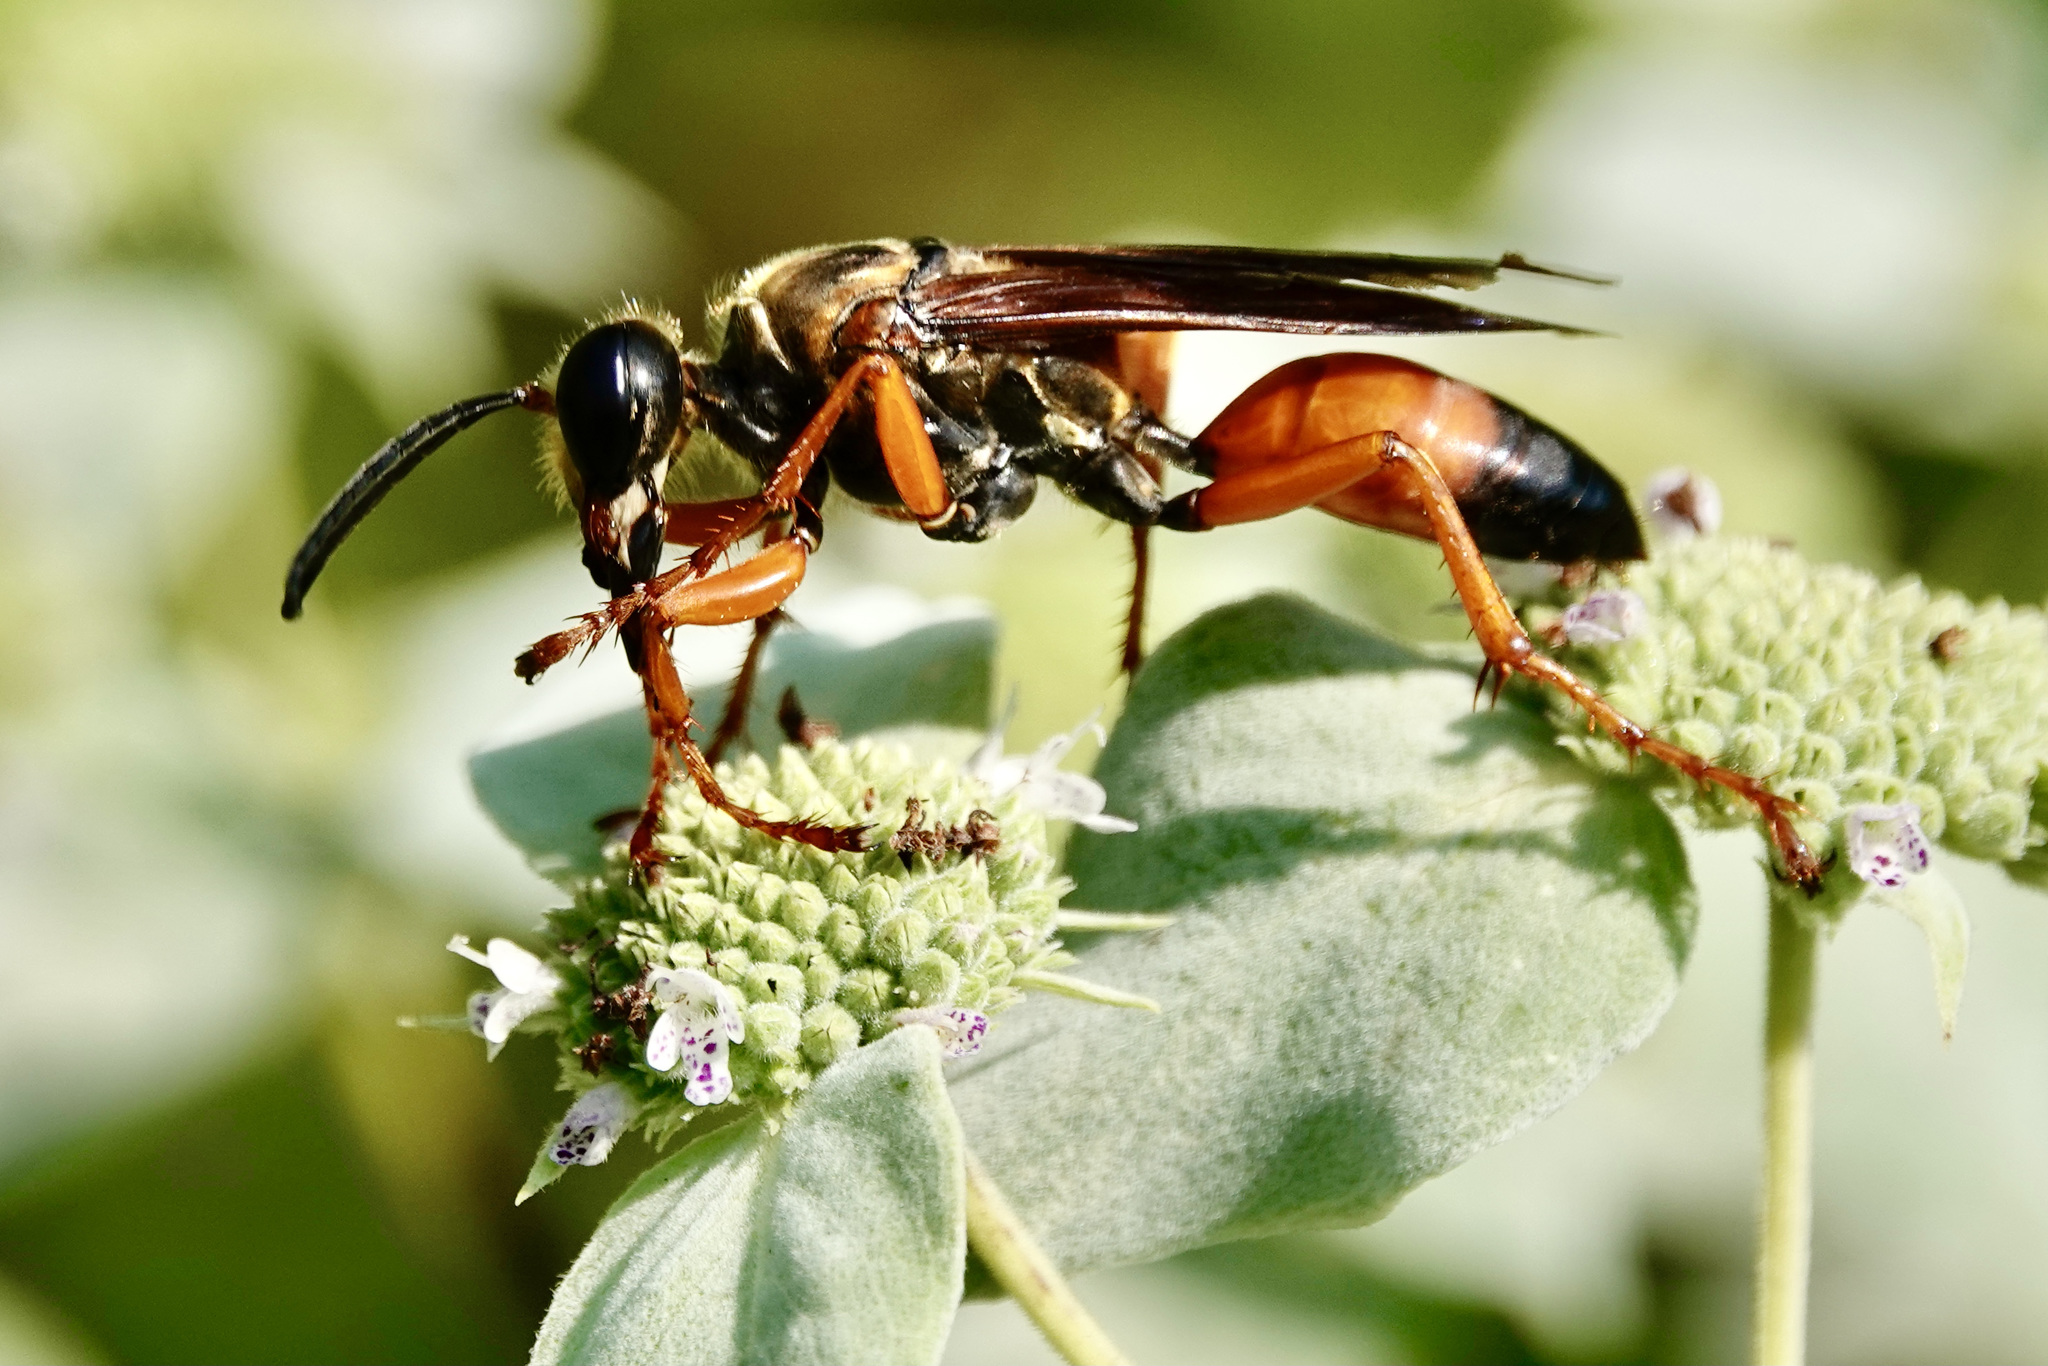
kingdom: Animalia
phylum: Arthropoda
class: Insecta
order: Hymenoptera
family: Sphecidae
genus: Sphex
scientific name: Sphex ichneumoneus
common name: Great golden digger wasp
